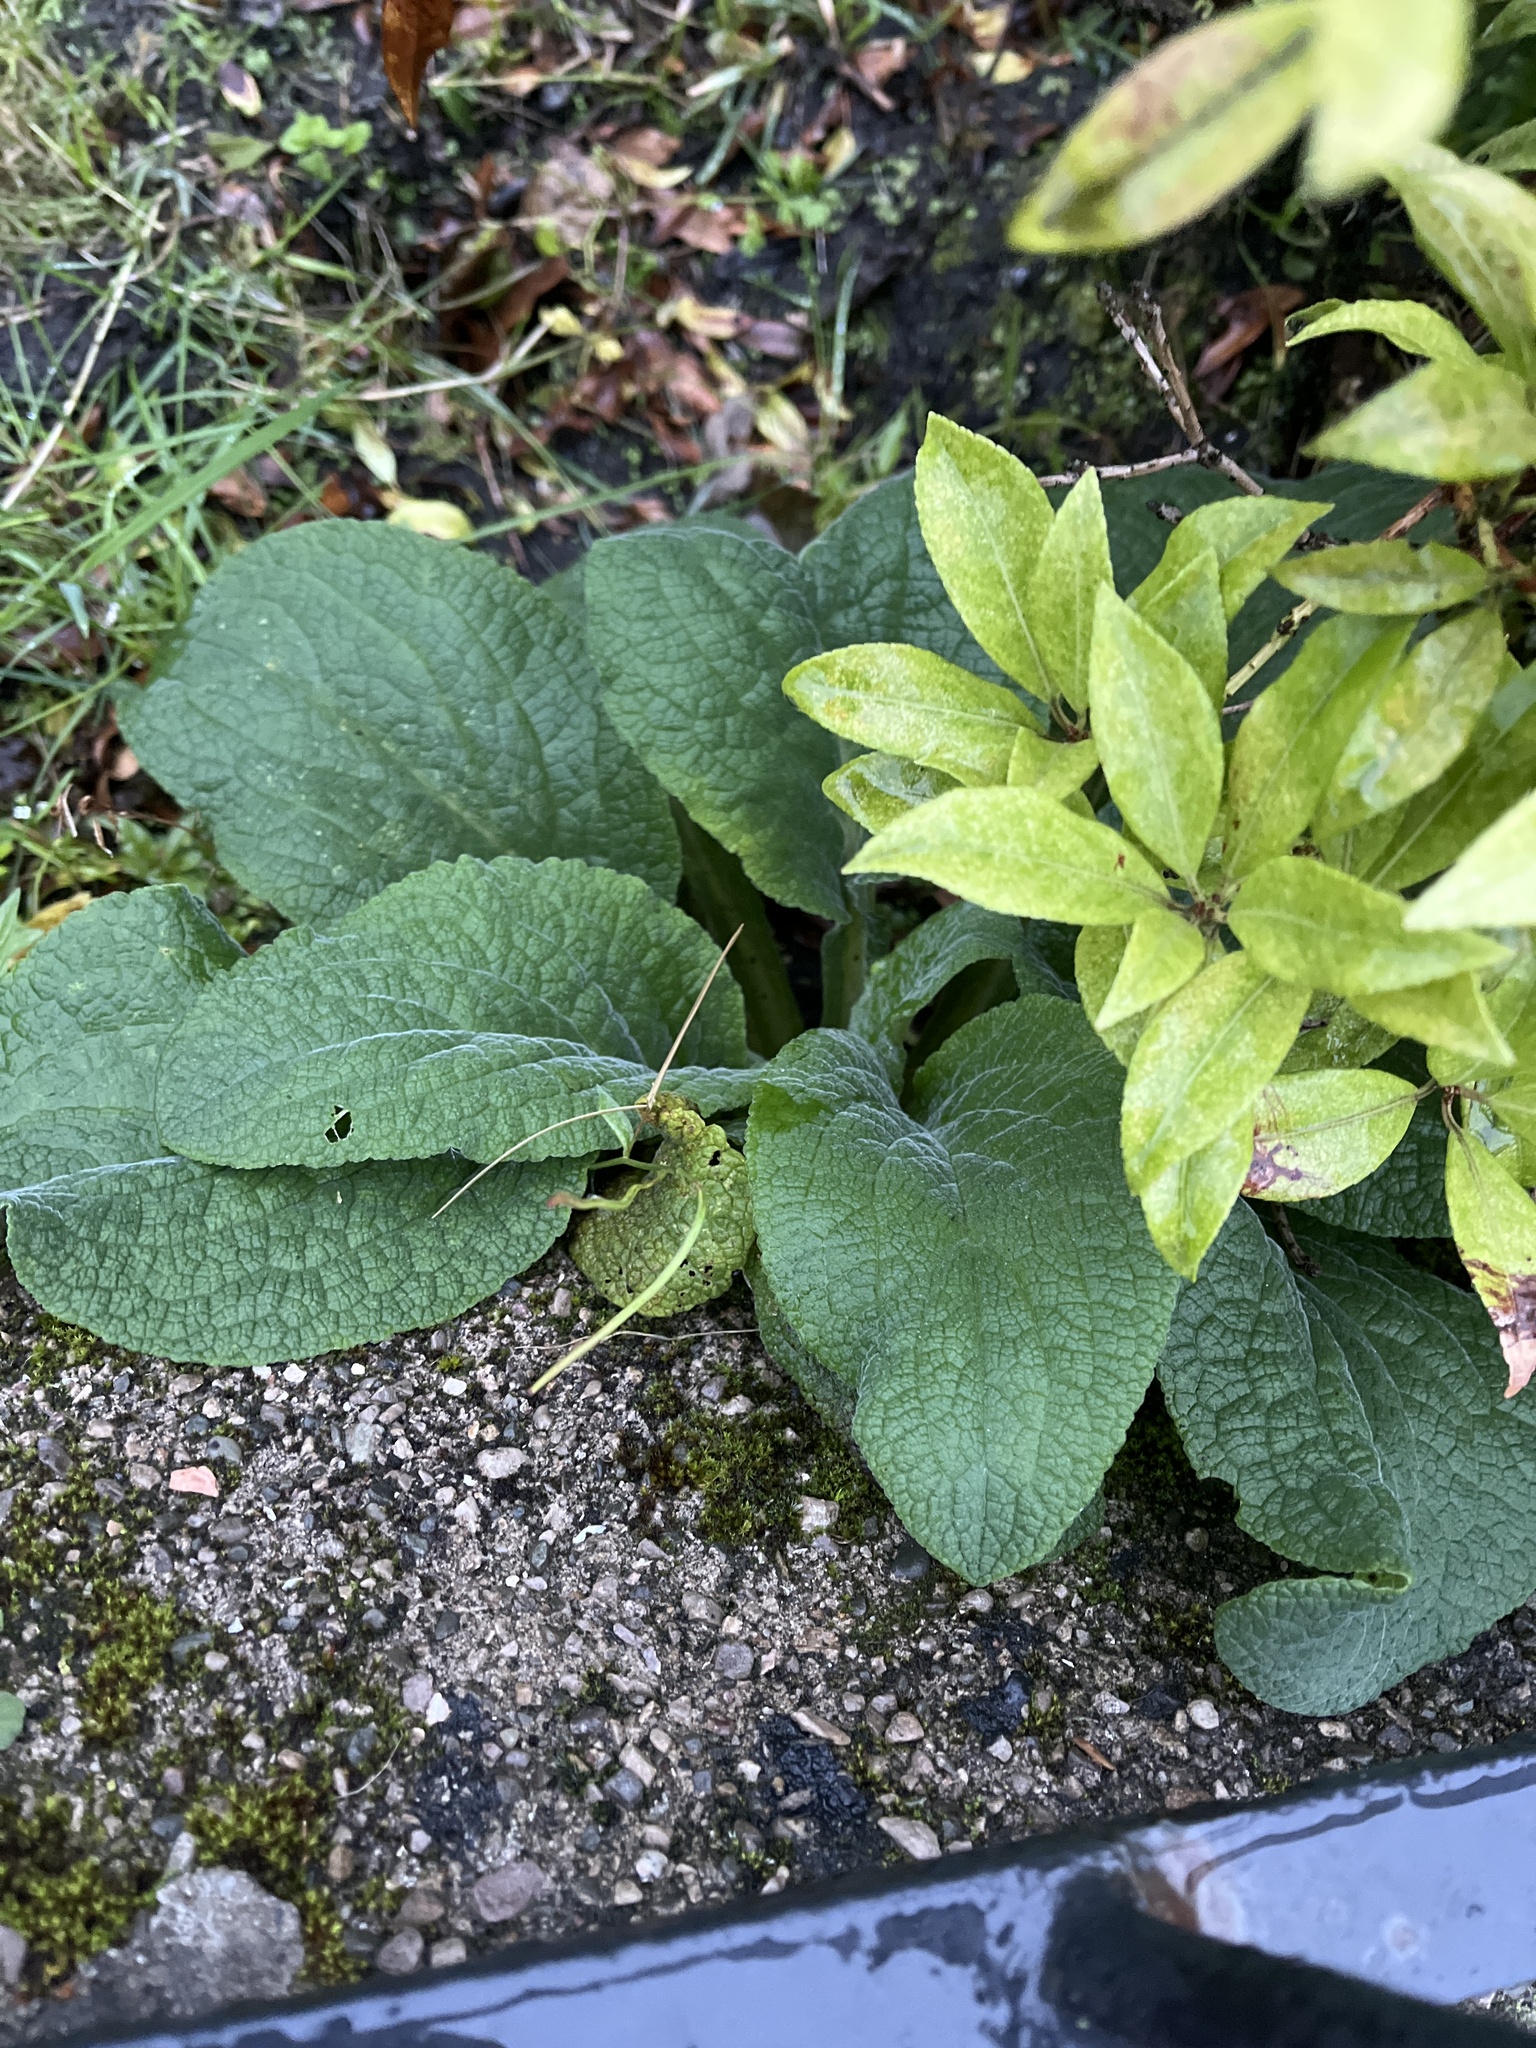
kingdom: Plantae
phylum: Tracheophyta
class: Magnoliopsida
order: Lamiales
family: Plantaginaceae
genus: Digitalis
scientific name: Digitalis purpurea
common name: Foxglove
